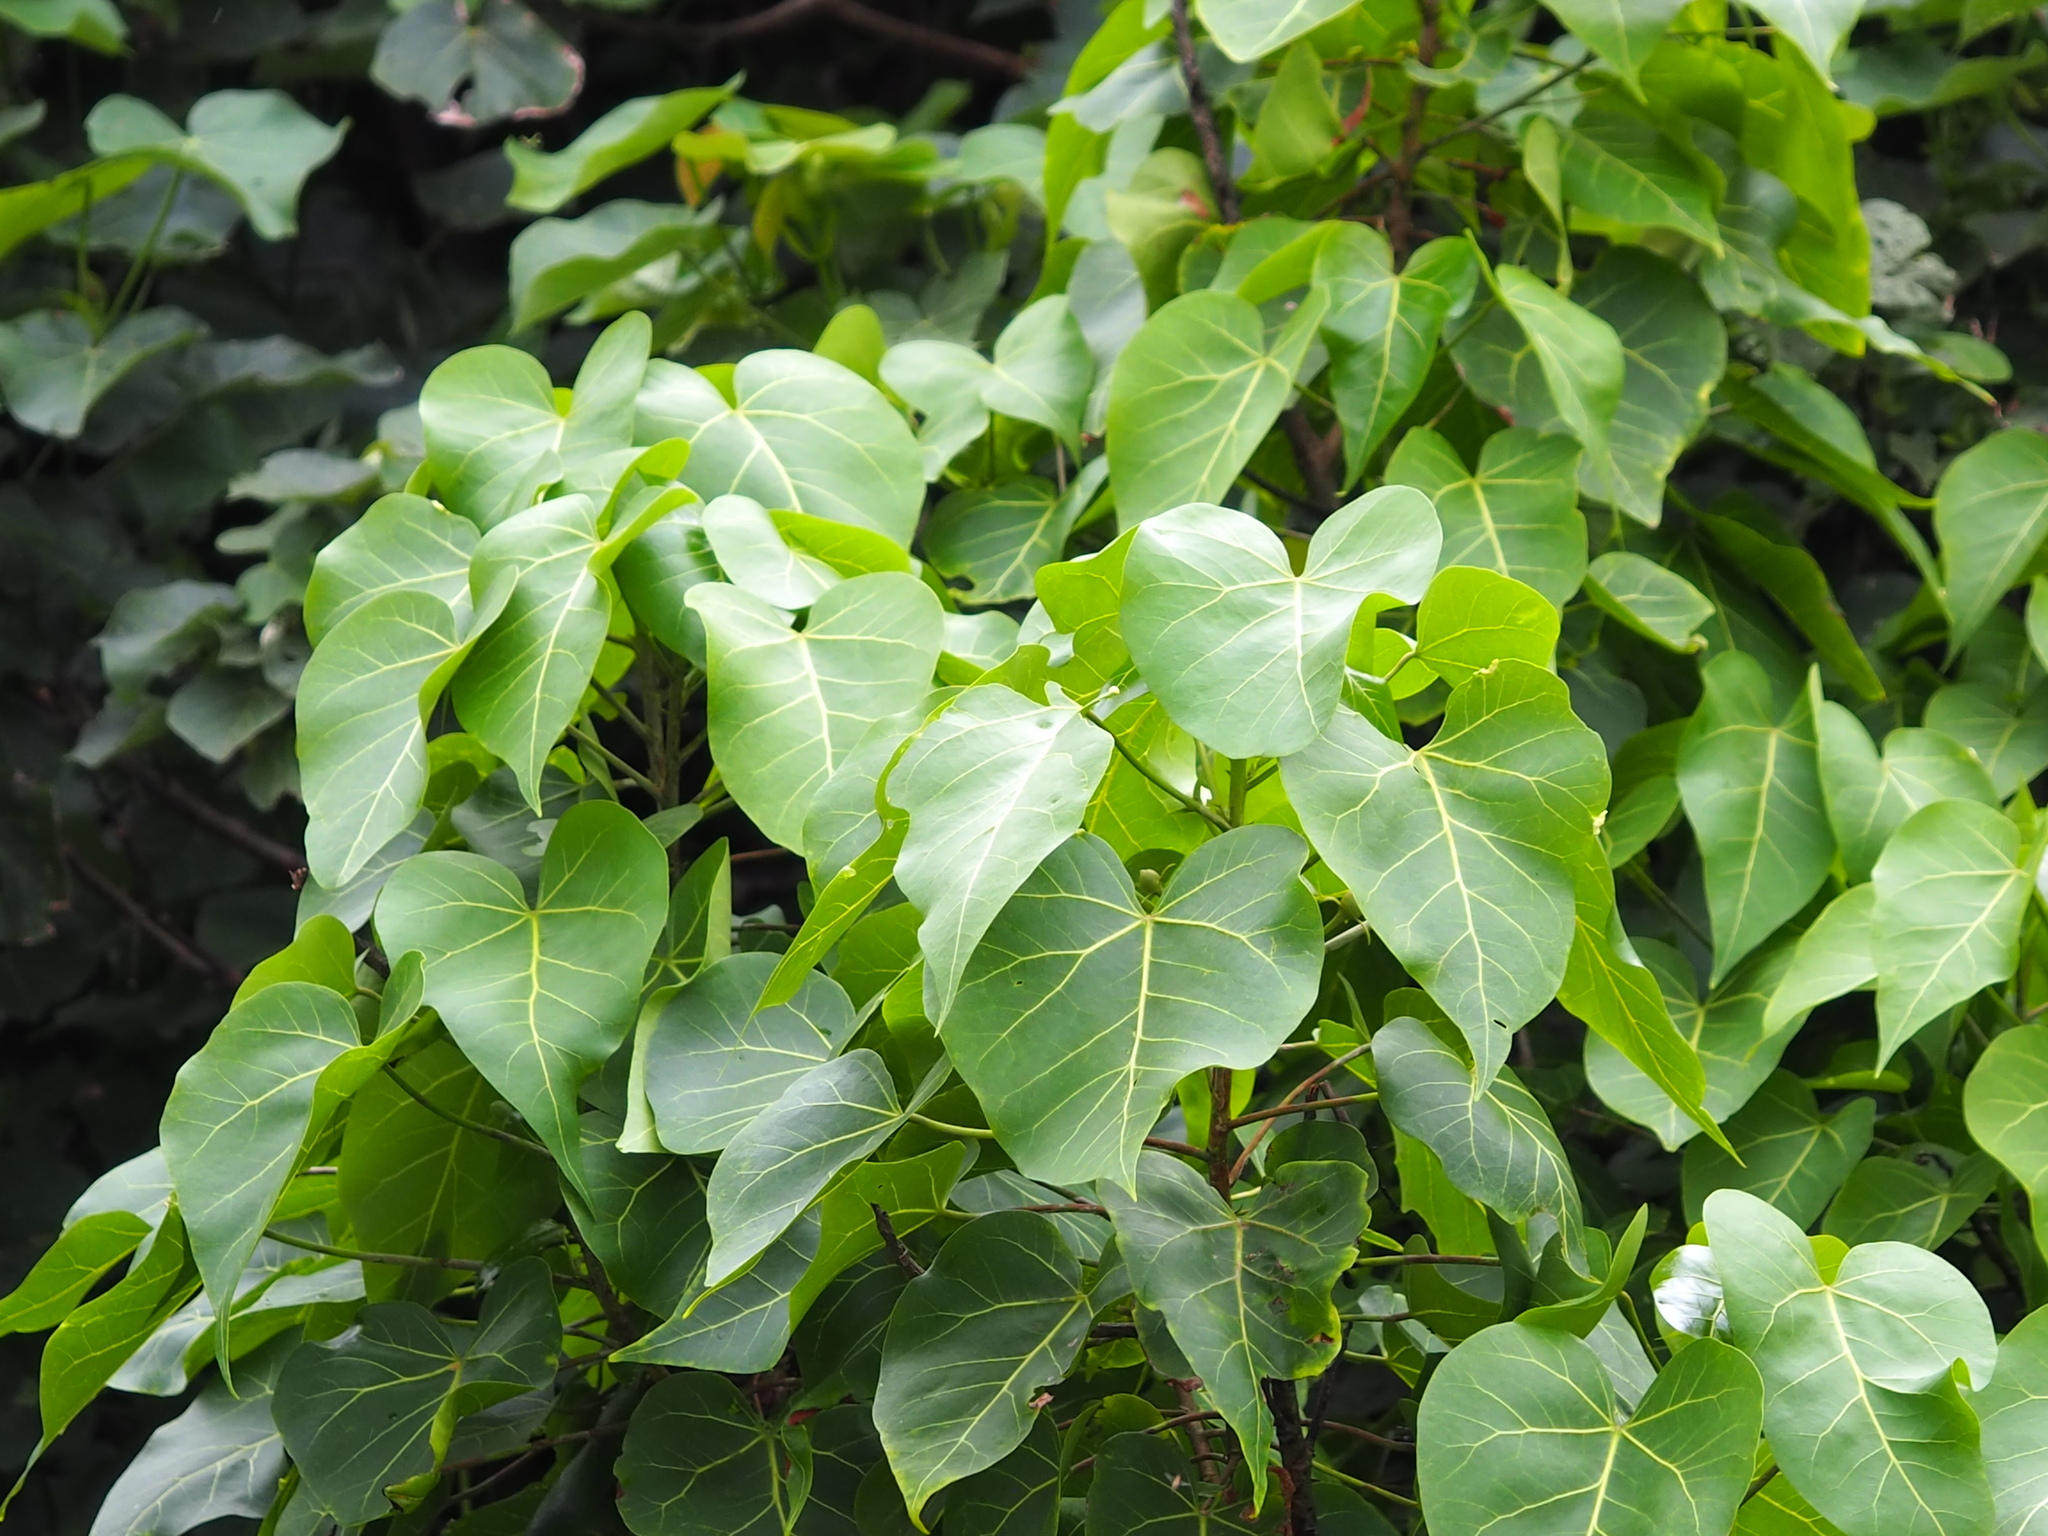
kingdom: Plantae
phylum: Tracheophyta
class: Magnoliopsida
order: Malvales
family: Malvaceae
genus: Thespesia
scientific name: Thespesia populnea
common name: Seaside mahoe
